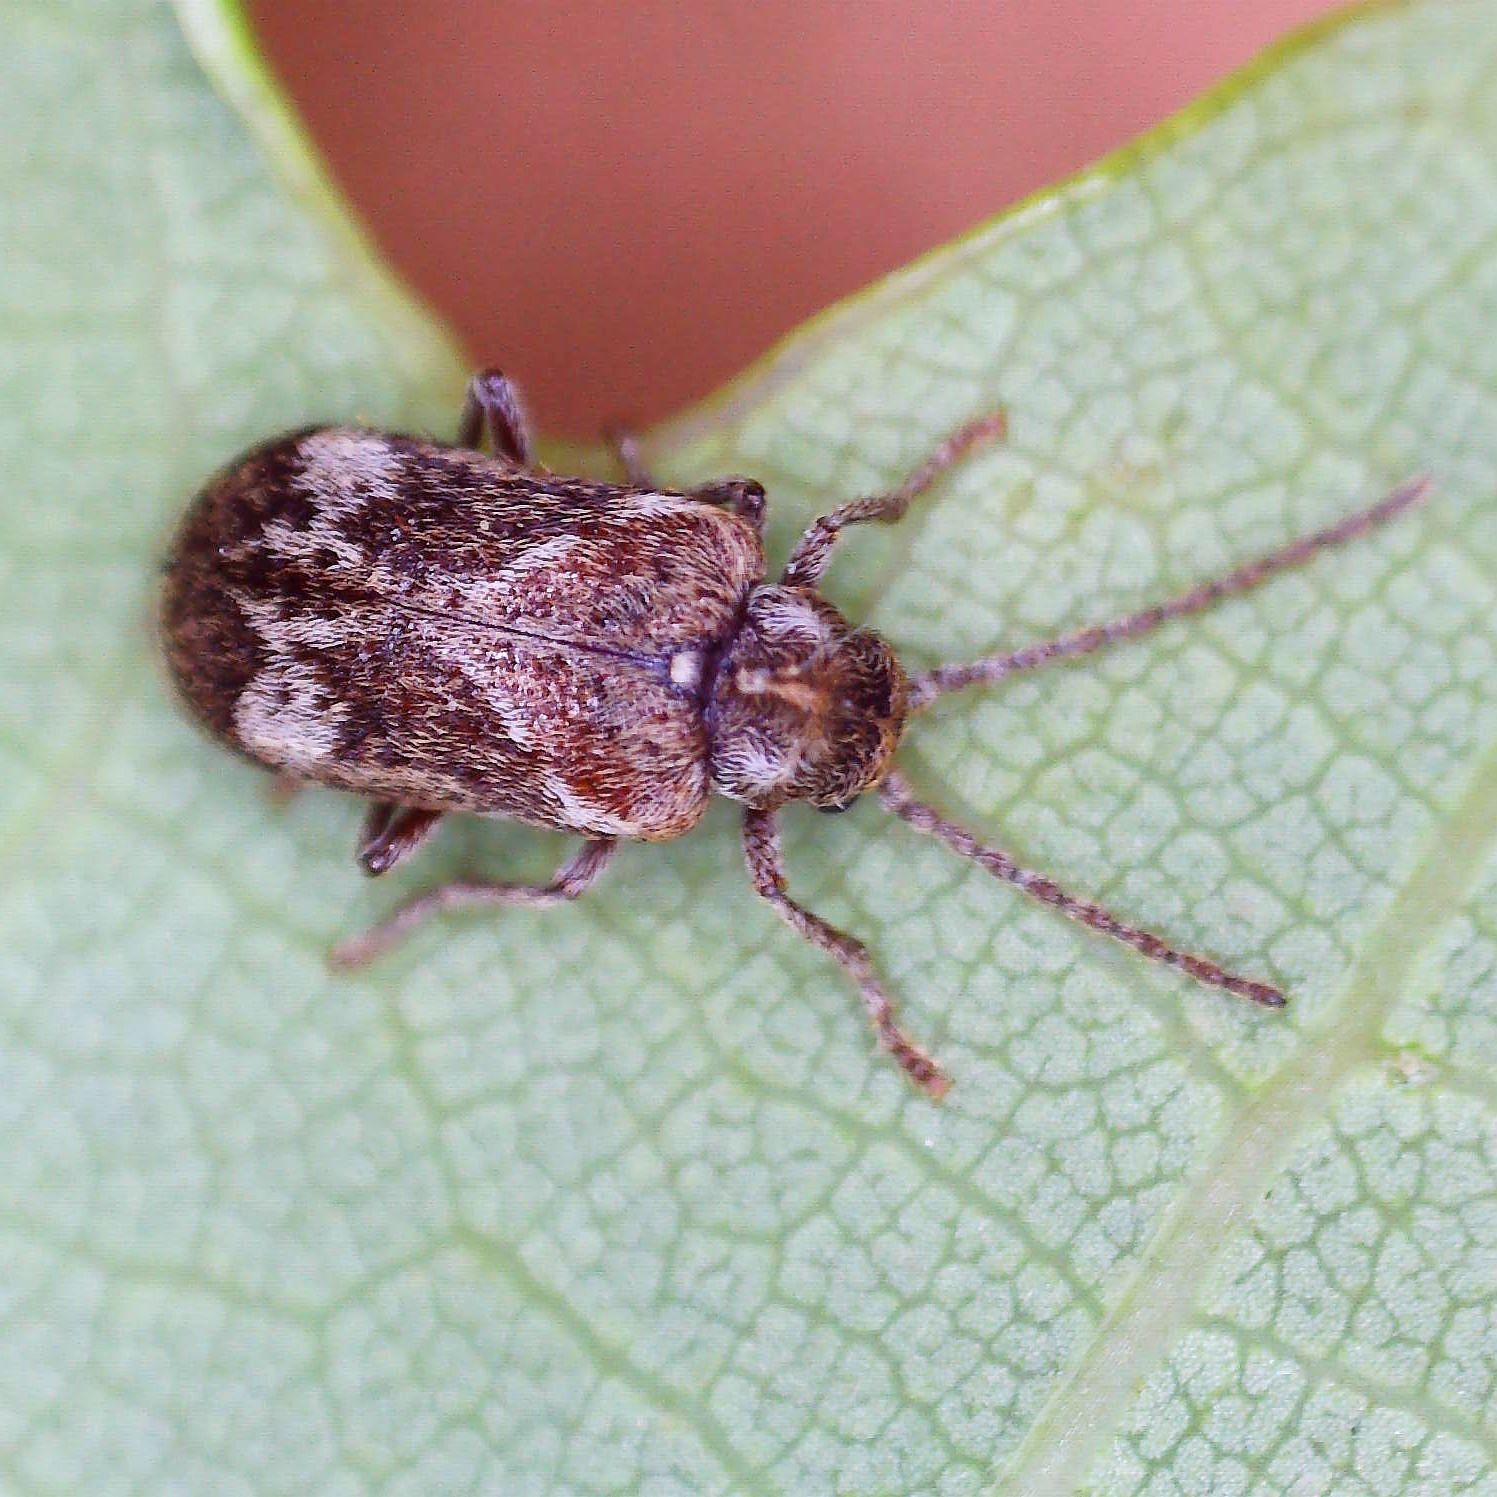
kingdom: Animalia
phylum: Arthropoda
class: Insecta
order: Coleoptera
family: Anobiidae
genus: Ptinomorphus
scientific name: Ptinomorphus imperialis
